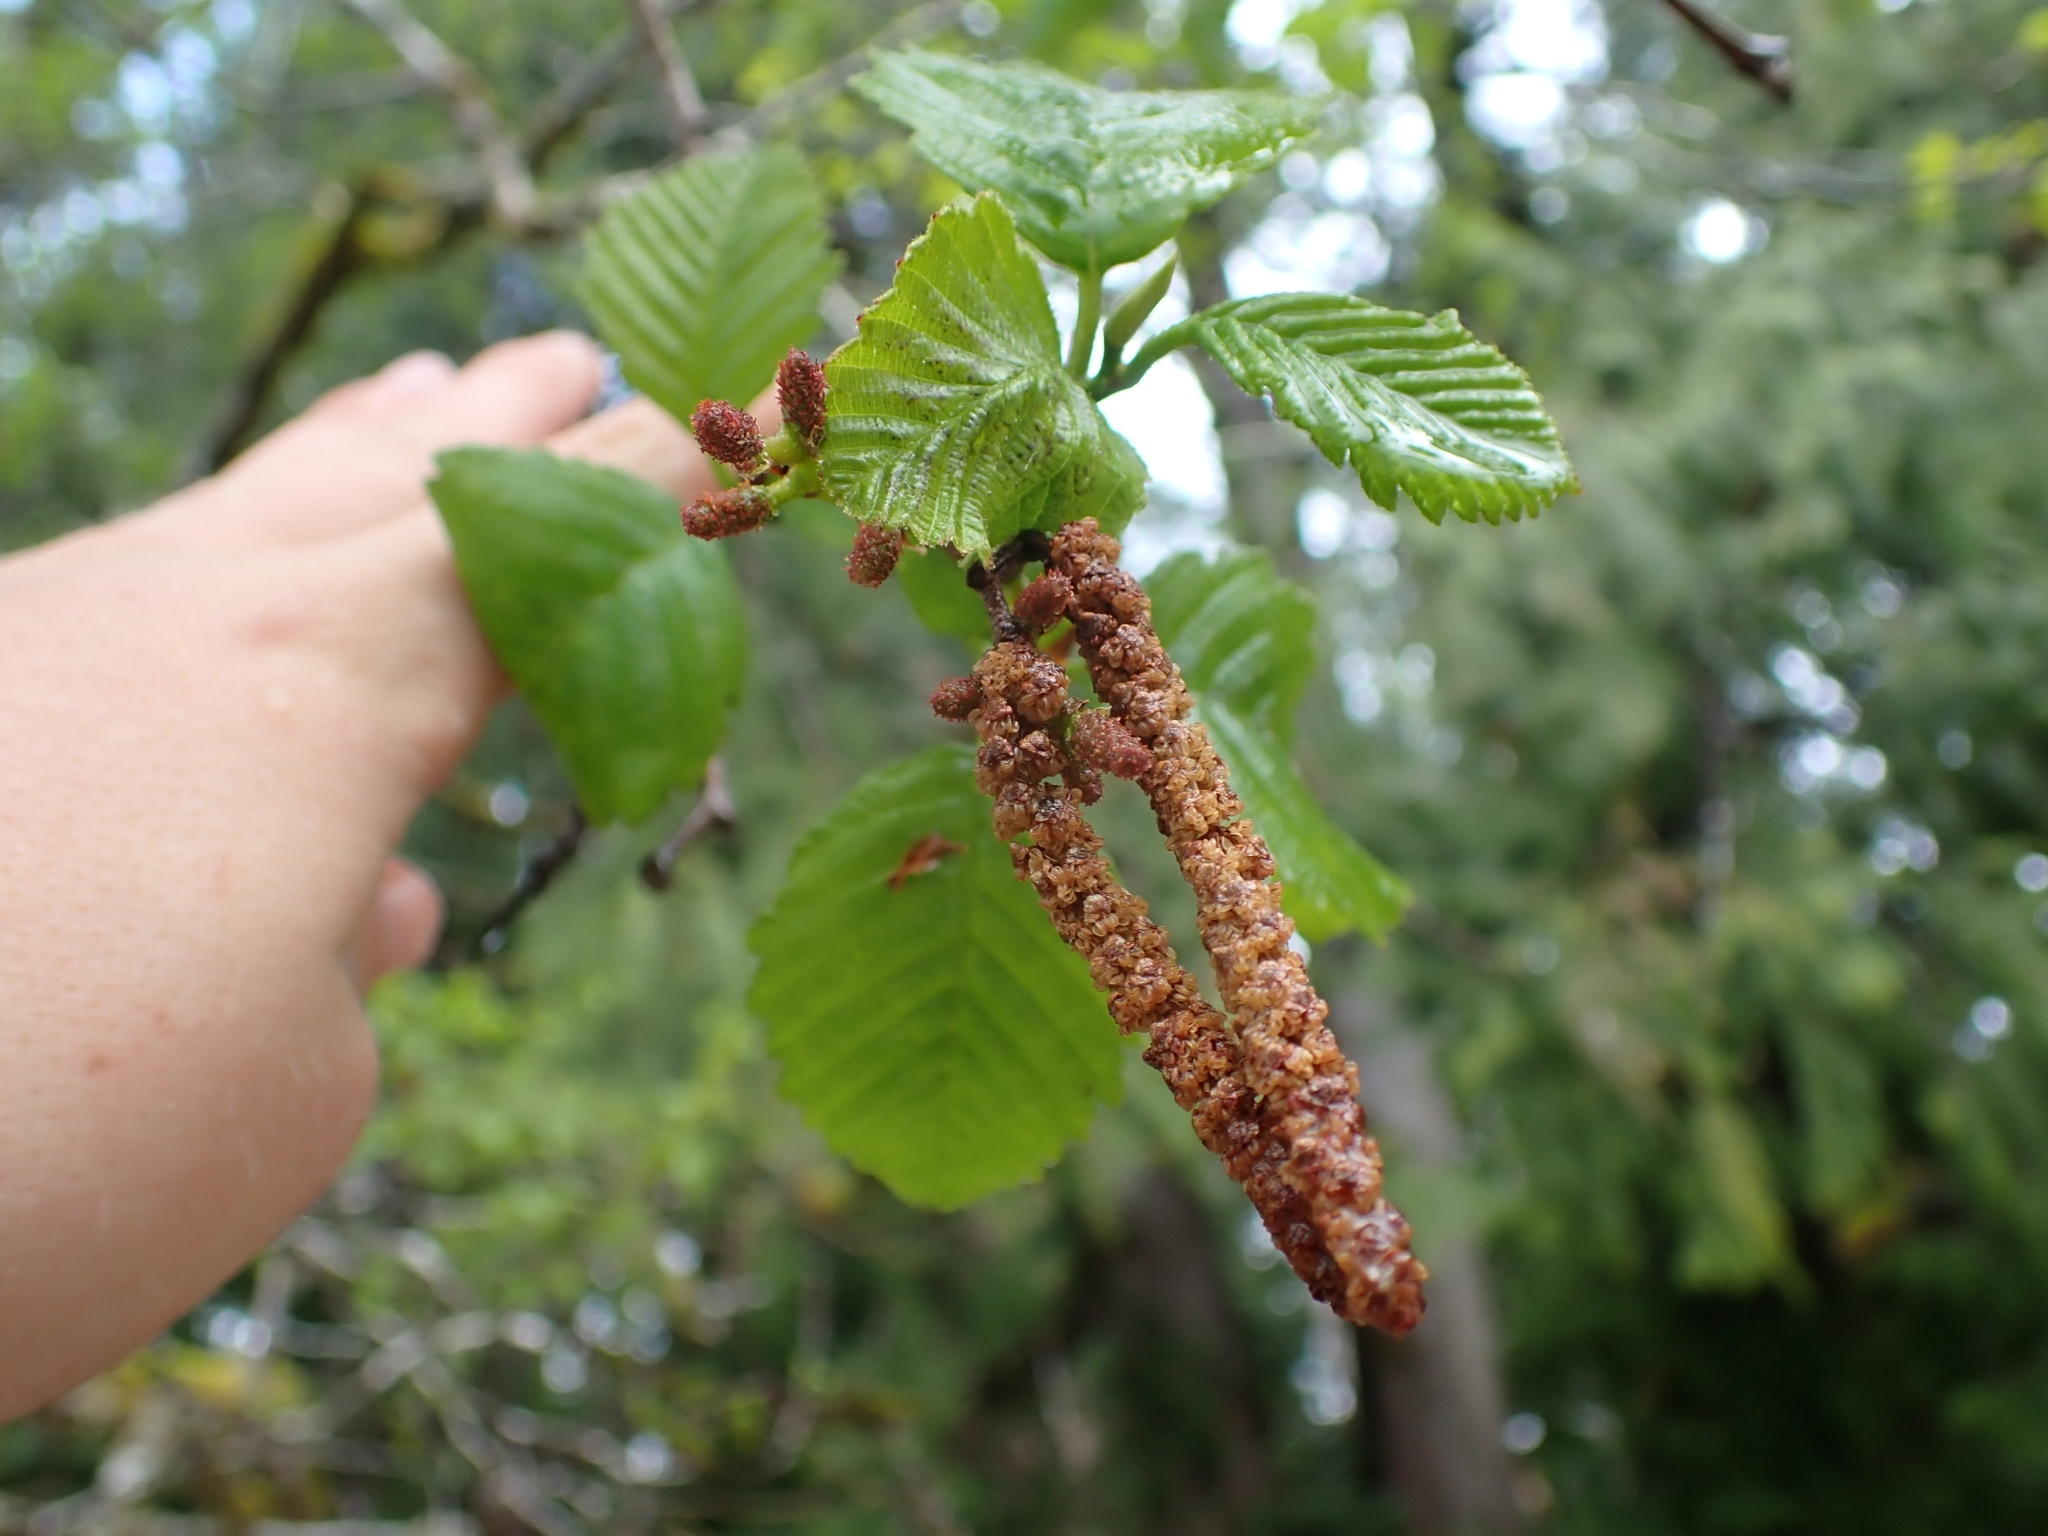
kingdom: Plantae
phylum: Tracheophyta
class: Magnoliopsida
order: Fagales
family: Betulaceae
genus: Alnus
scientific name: Alnus rubra
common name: Red alder
